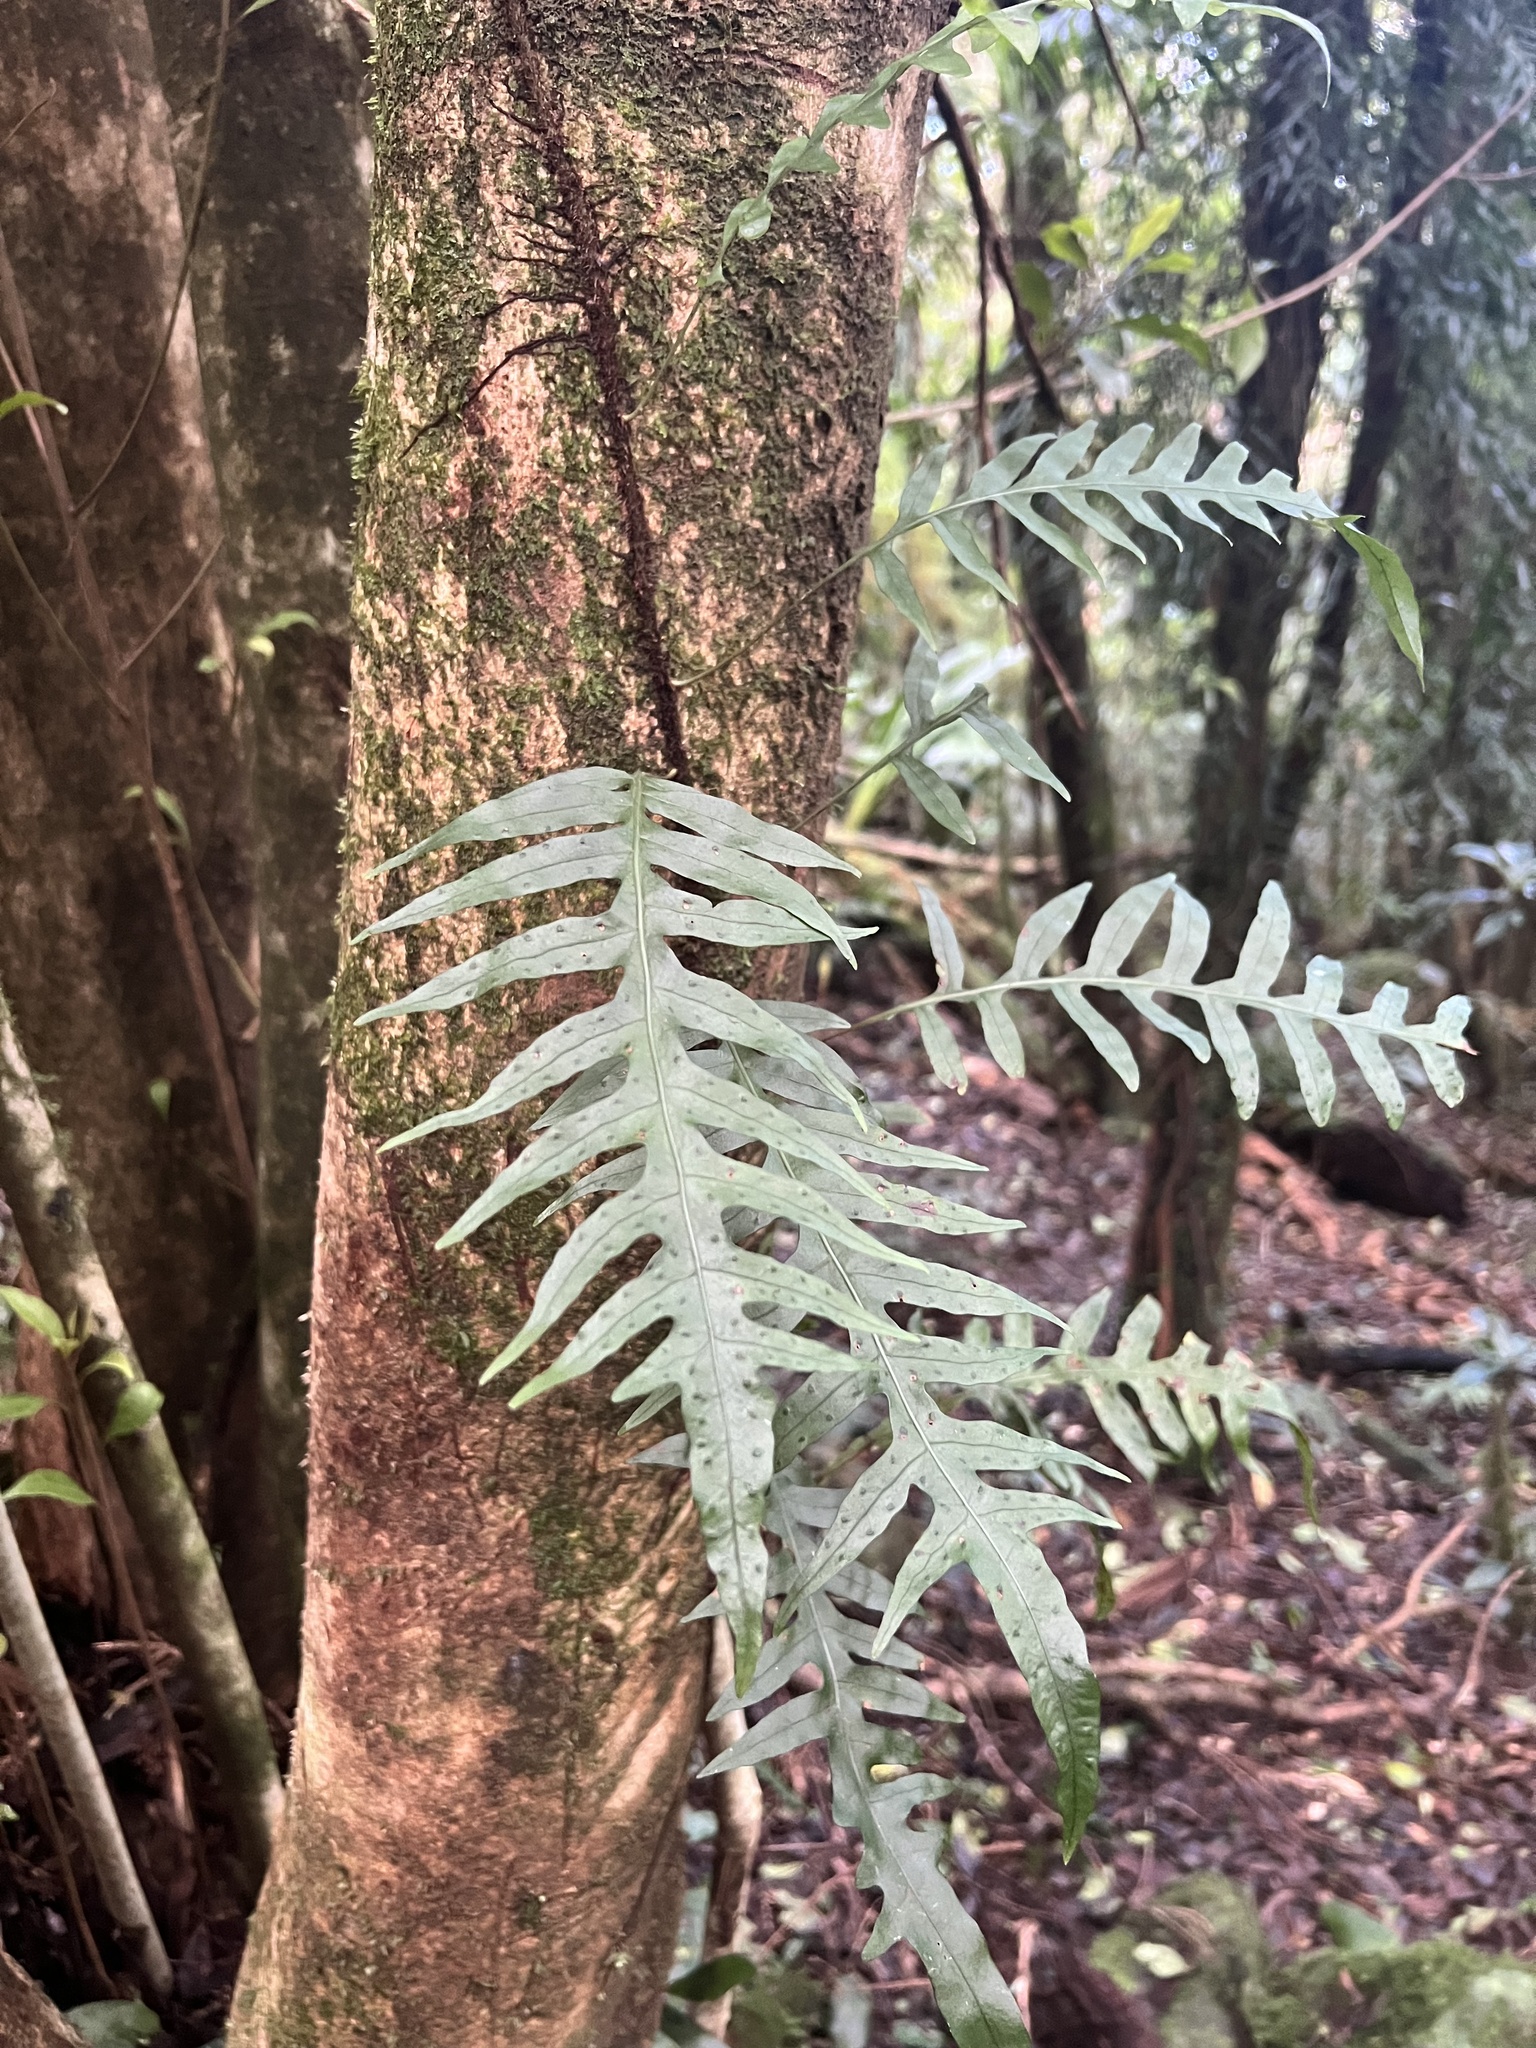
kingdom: Plantae
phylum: Tracheophyta
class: Polypodiopsida
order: Polypodiales
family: Polypodiaceae
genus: Lecanopteris
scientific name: Lecanopteris scandens
